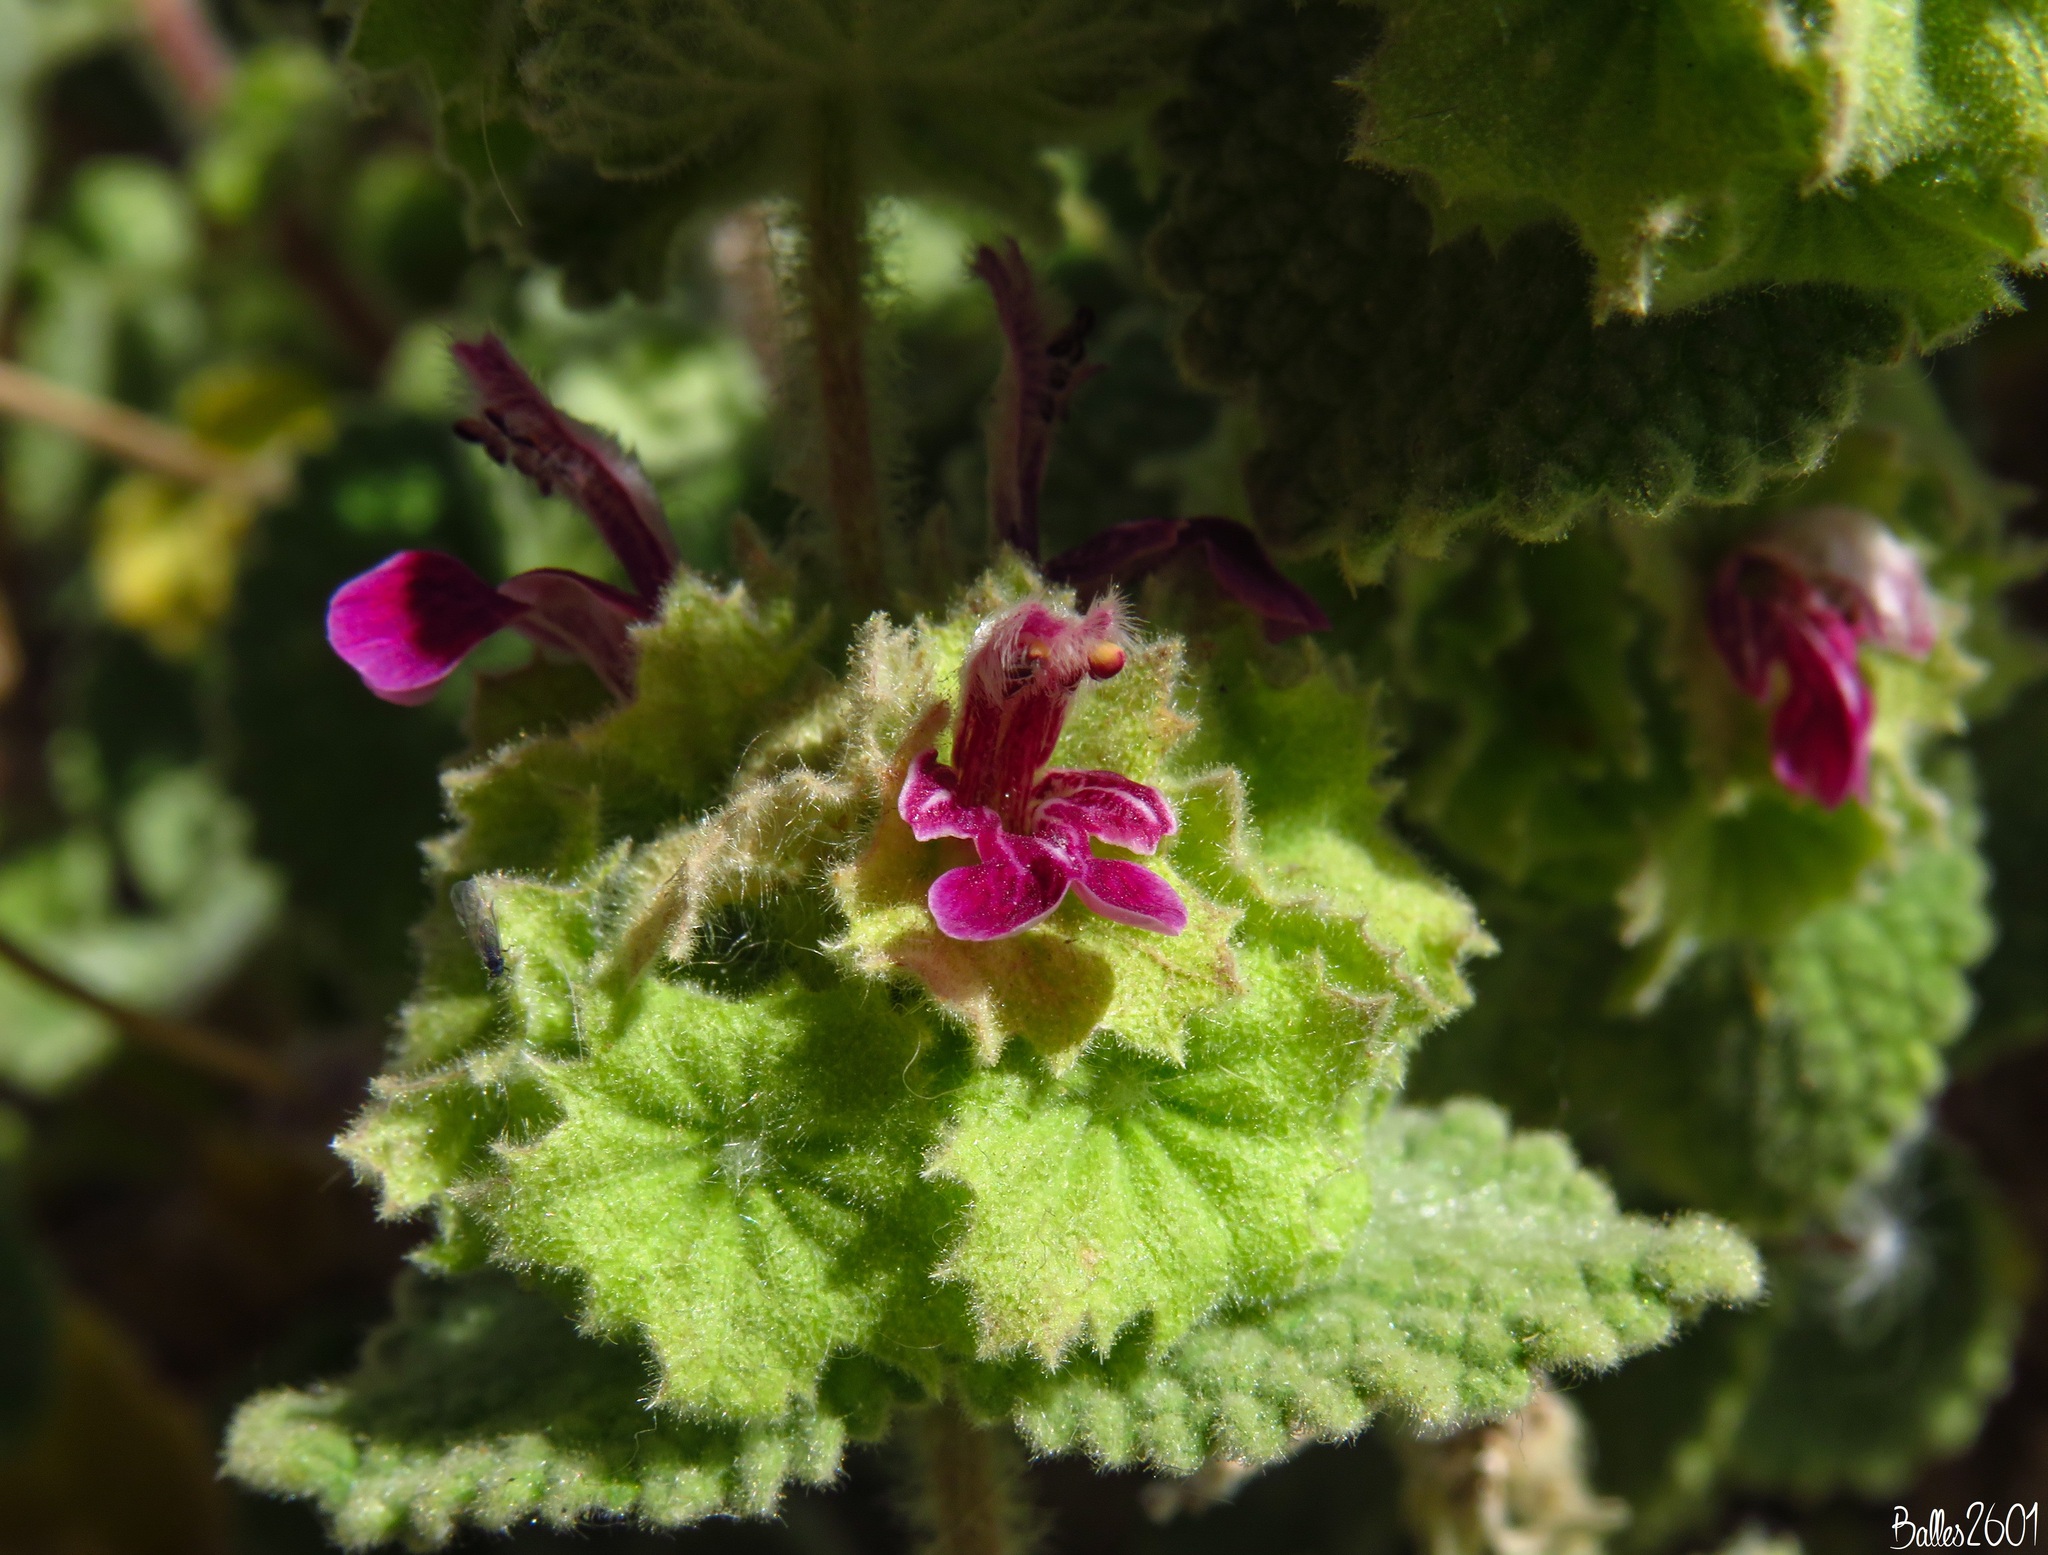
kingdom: Plantae
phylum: Tracheophyta
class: Magnoliopsida
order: Lamiales
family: Lamiaceae
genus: Pseudodictamnus
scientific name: Pseudodictamnus hirsutus
